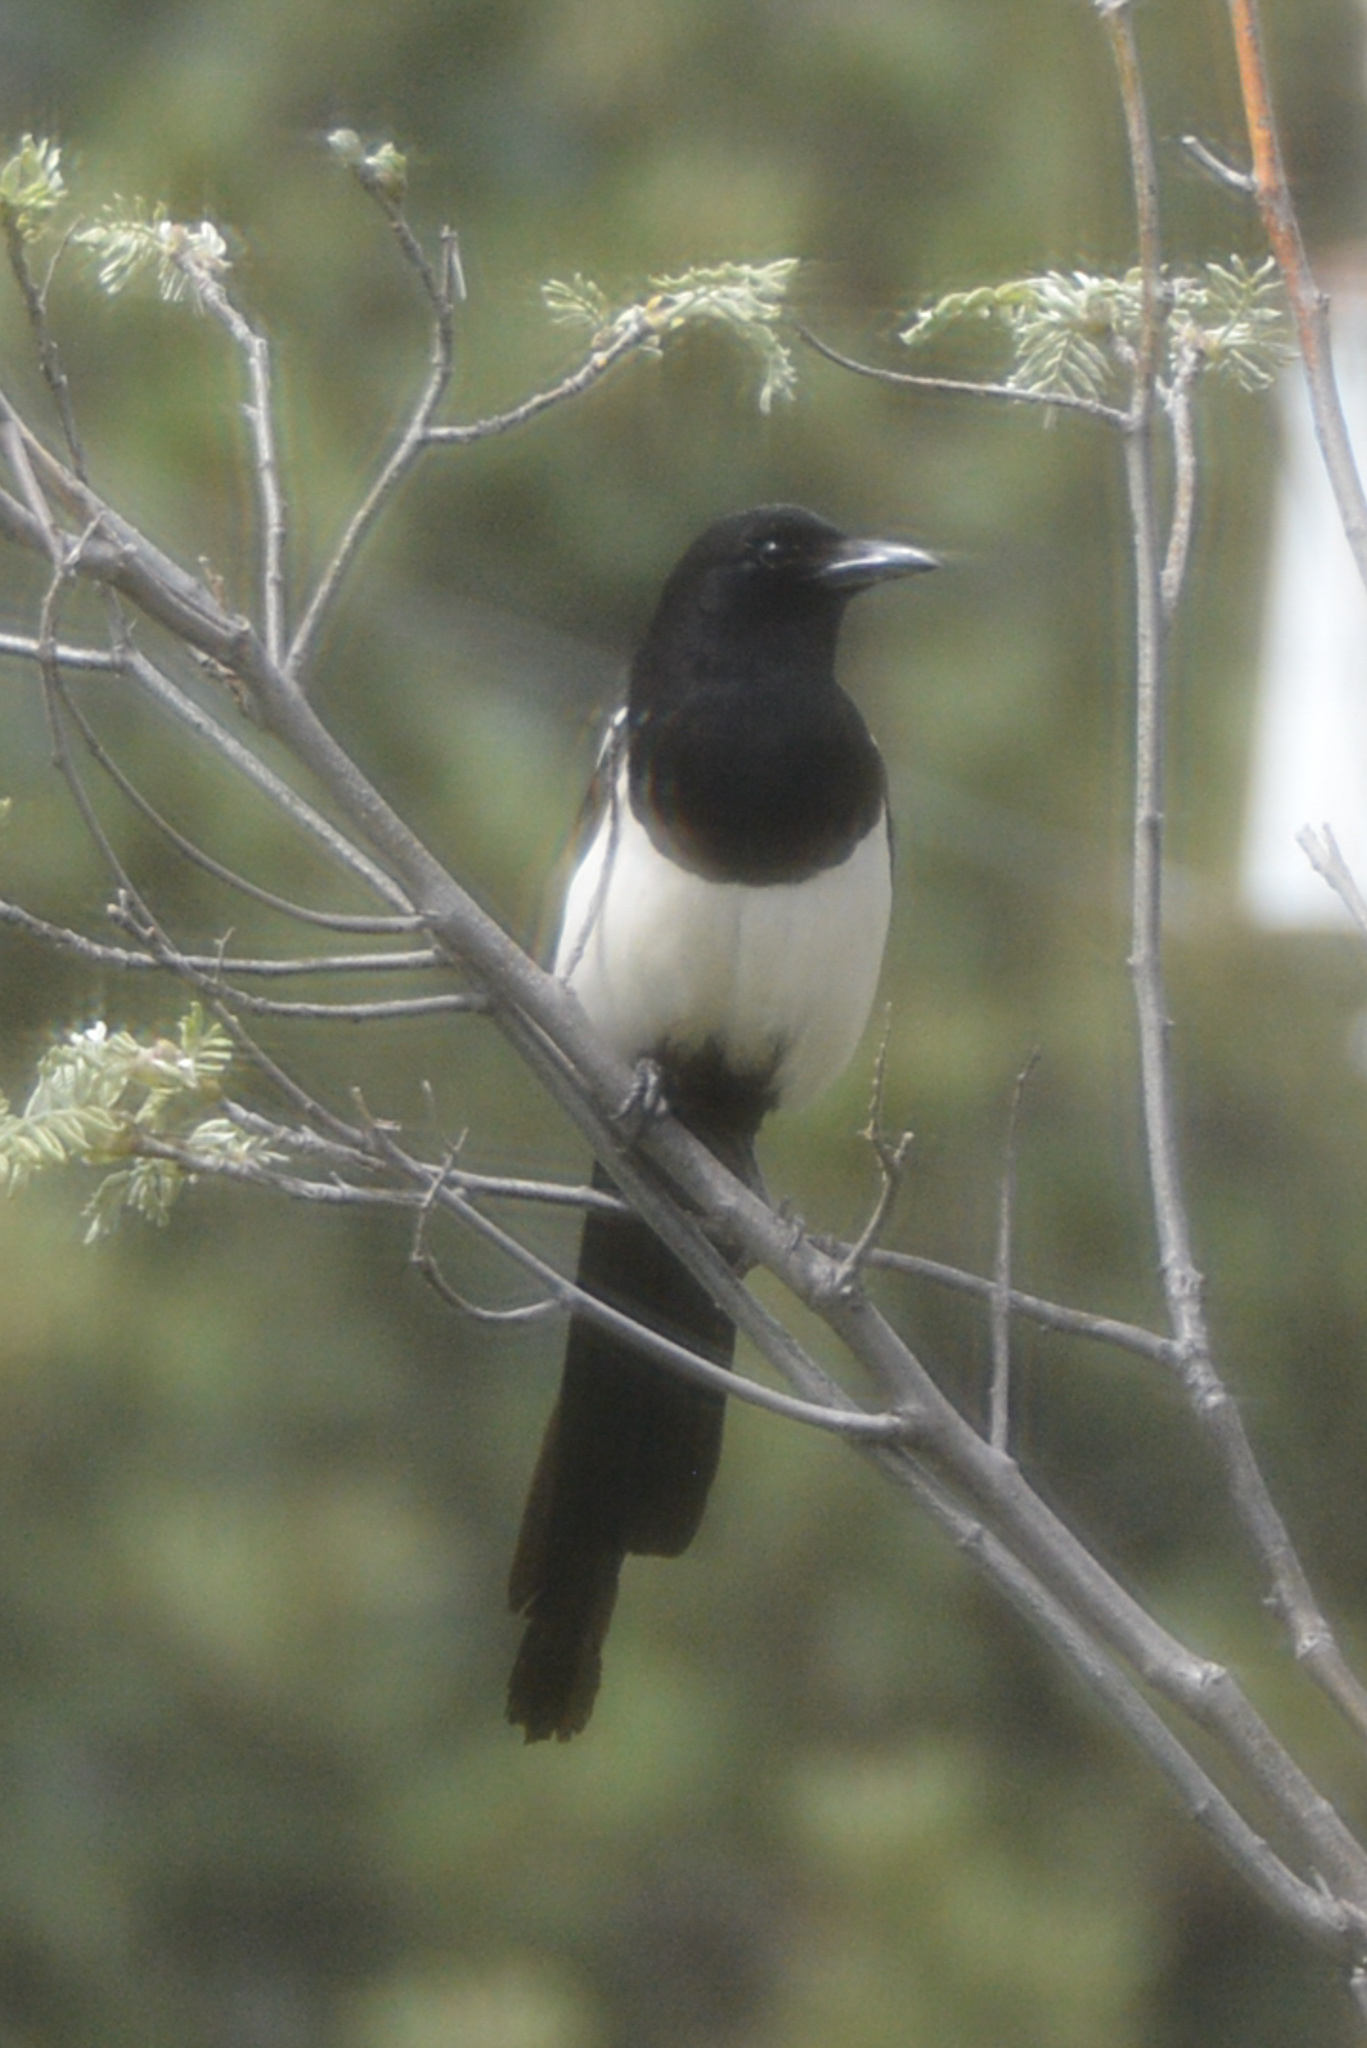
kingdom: Animalia
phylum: Chordata
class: Aves
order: Passeriformes
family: Corvidae
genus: Pica
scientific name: Pica hudsonia
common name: Black-billed magpie
